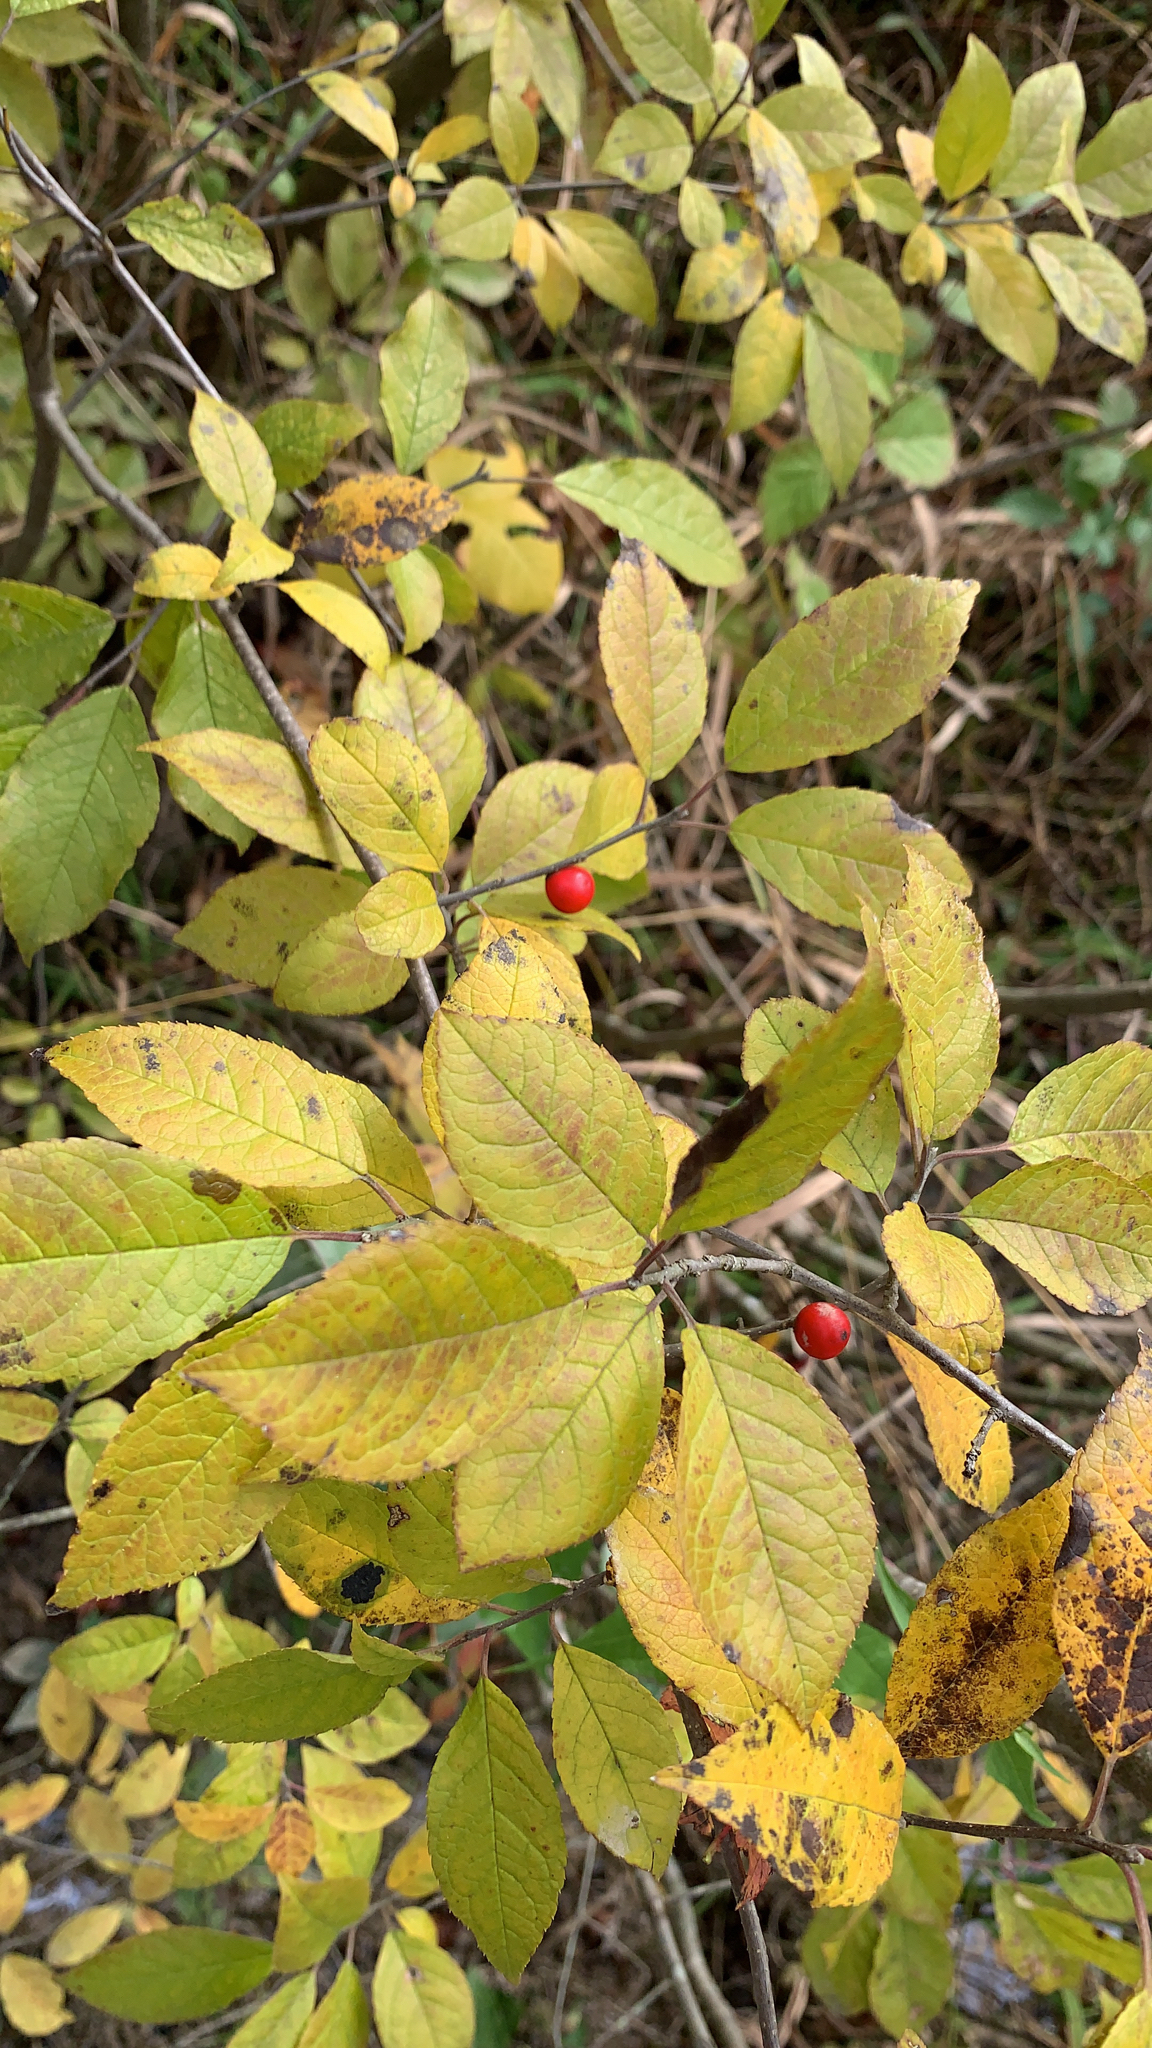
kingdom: Plantae
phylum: Tracheophyta
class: Magnoliopsida
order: Aquifoliales
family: Aquifoliaceae
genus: Ilex
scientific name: Ilex verticillata
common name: Virginia winterberry
